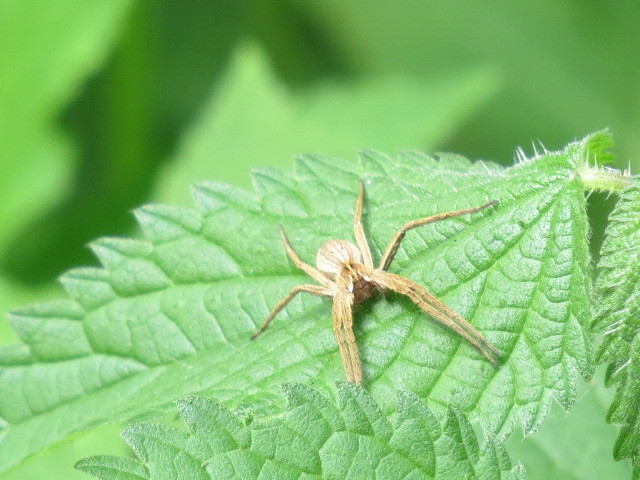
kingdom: Animalia
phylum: Arthropoda
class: Arachnida
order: Araneae
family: Pisauridae
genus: Pisaura
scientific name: Pisaura mirabilis
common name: Tent spider
